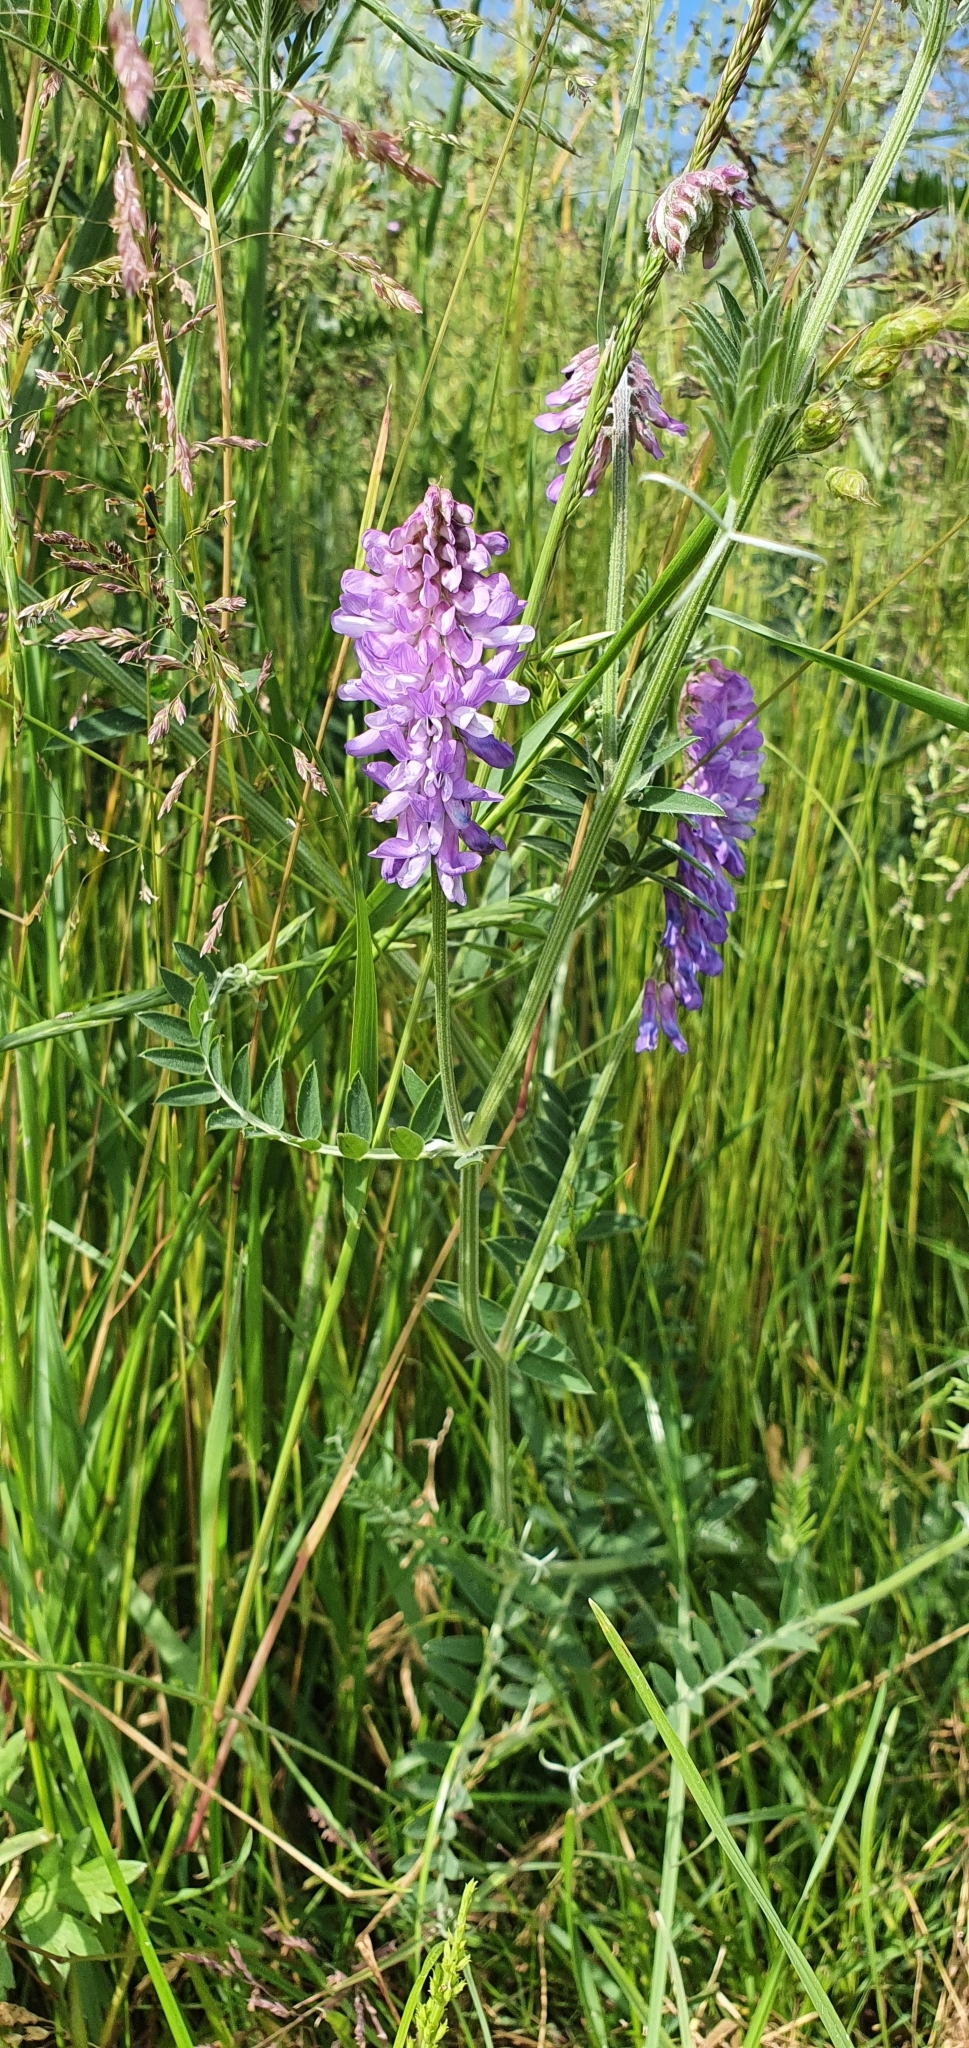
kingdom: Plantae
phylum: Tracheophyta
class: Magnoliopsida
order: Fabales
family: Fabaceae
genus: Vicia
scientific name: Vicia cracca
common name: Bird vetch
